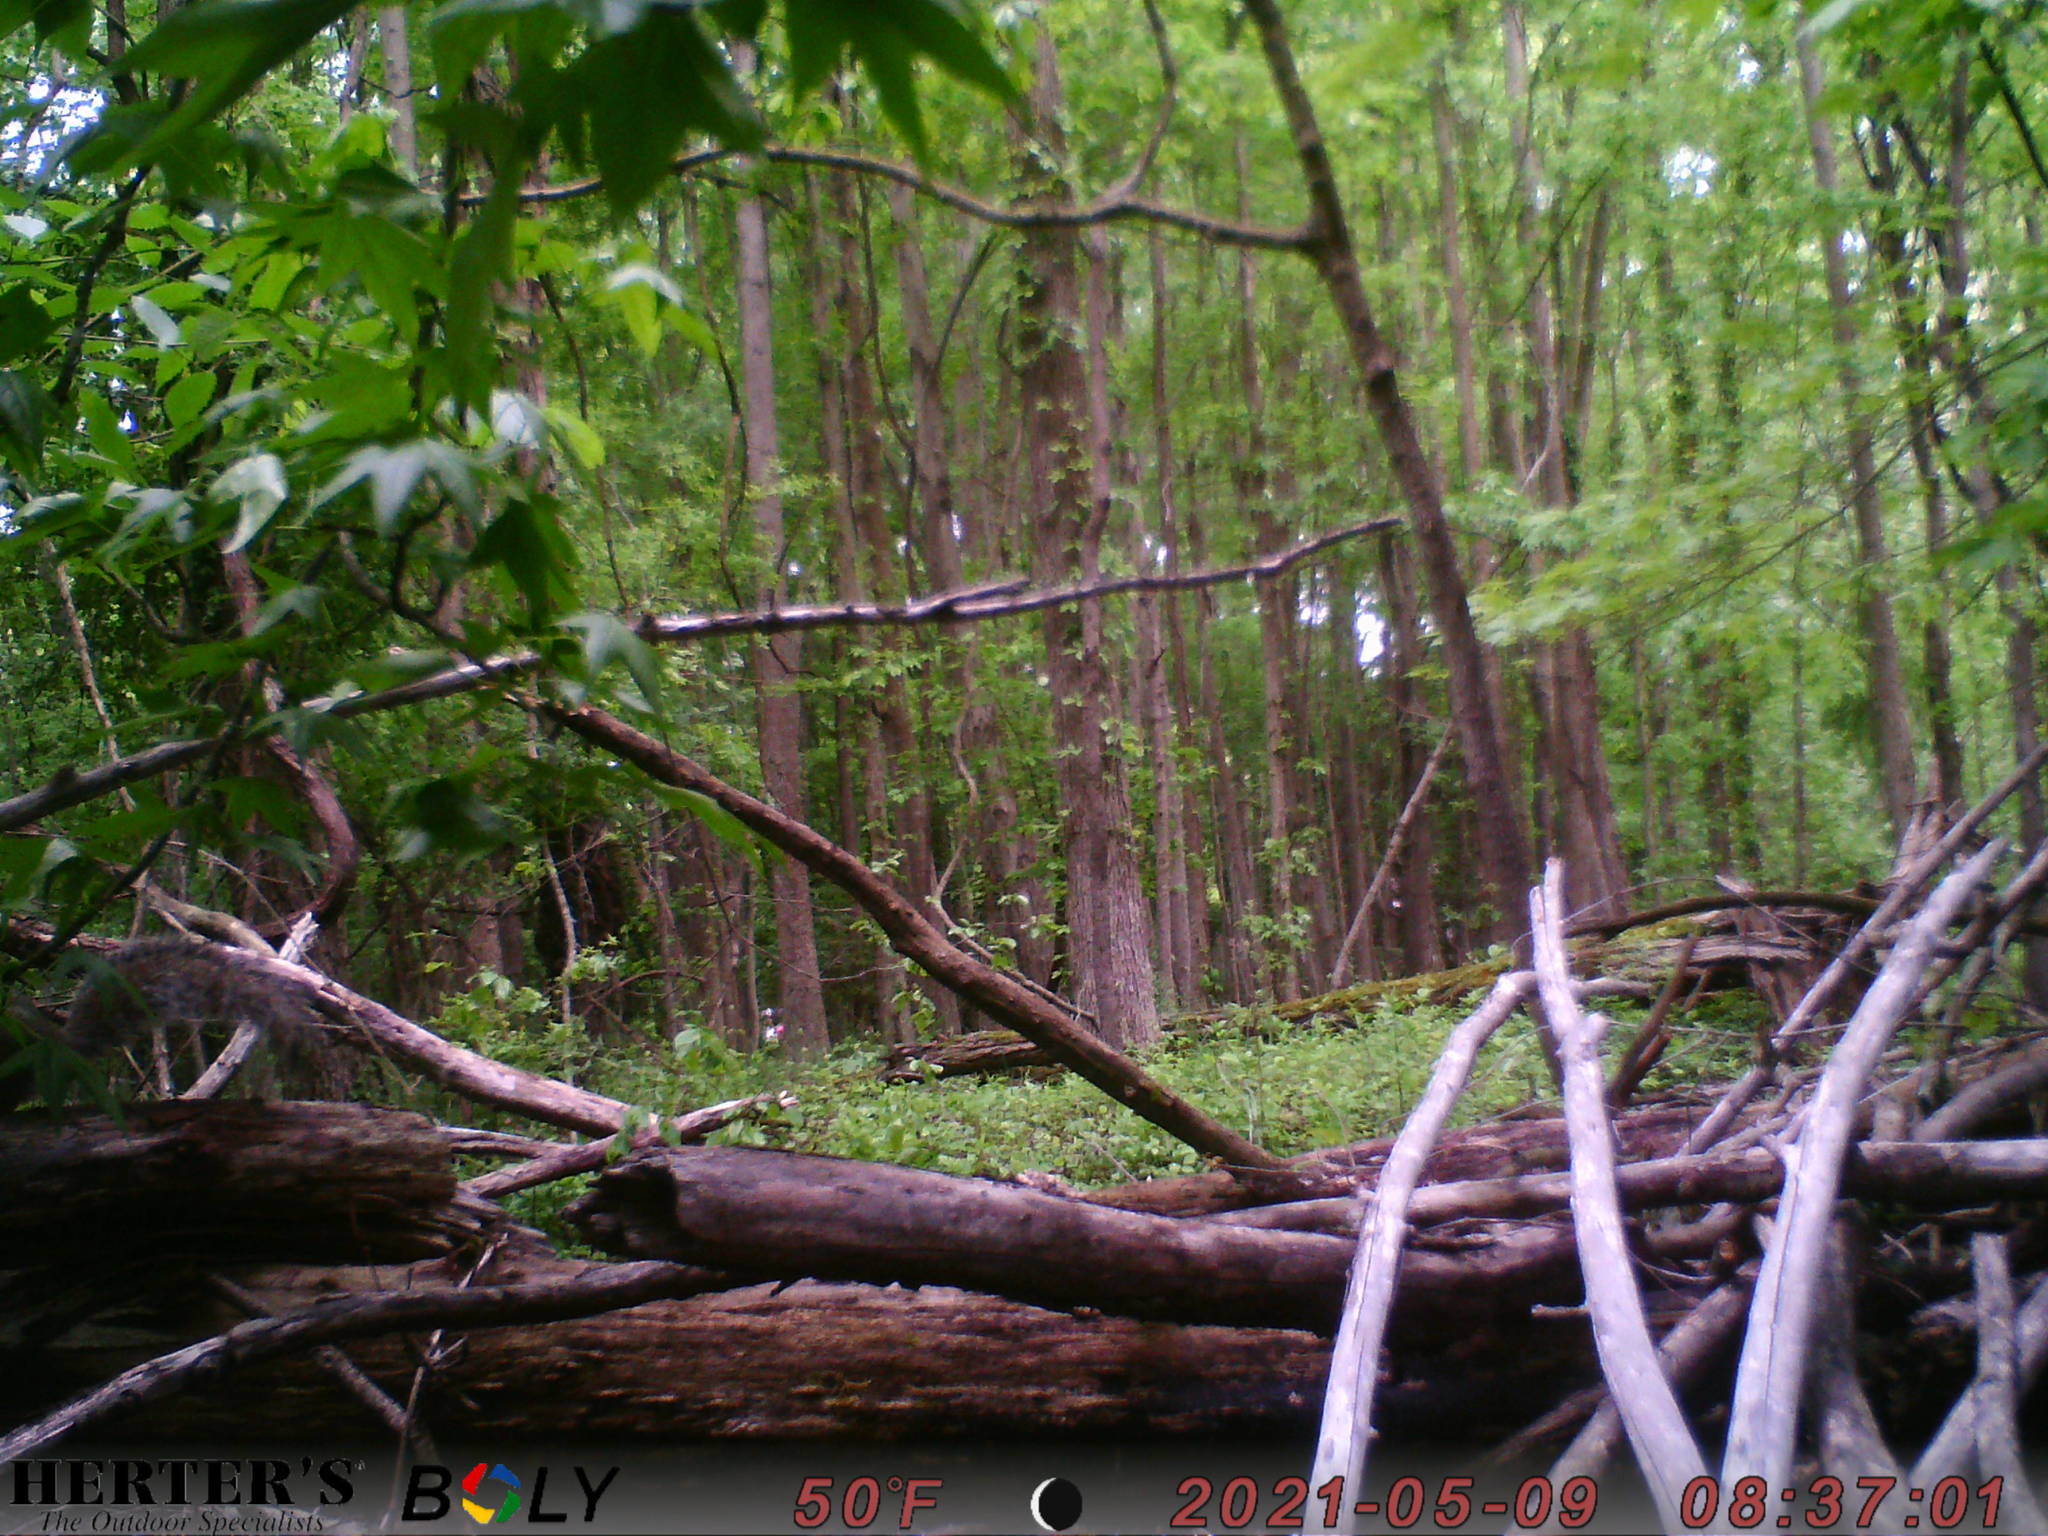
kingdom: Animalia
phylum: Chordata
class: Mammalia
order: Rodentia
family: Sciuridae
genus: Sciurus
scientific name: Sciurus carolinensis
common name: Eastern gray squirrel
